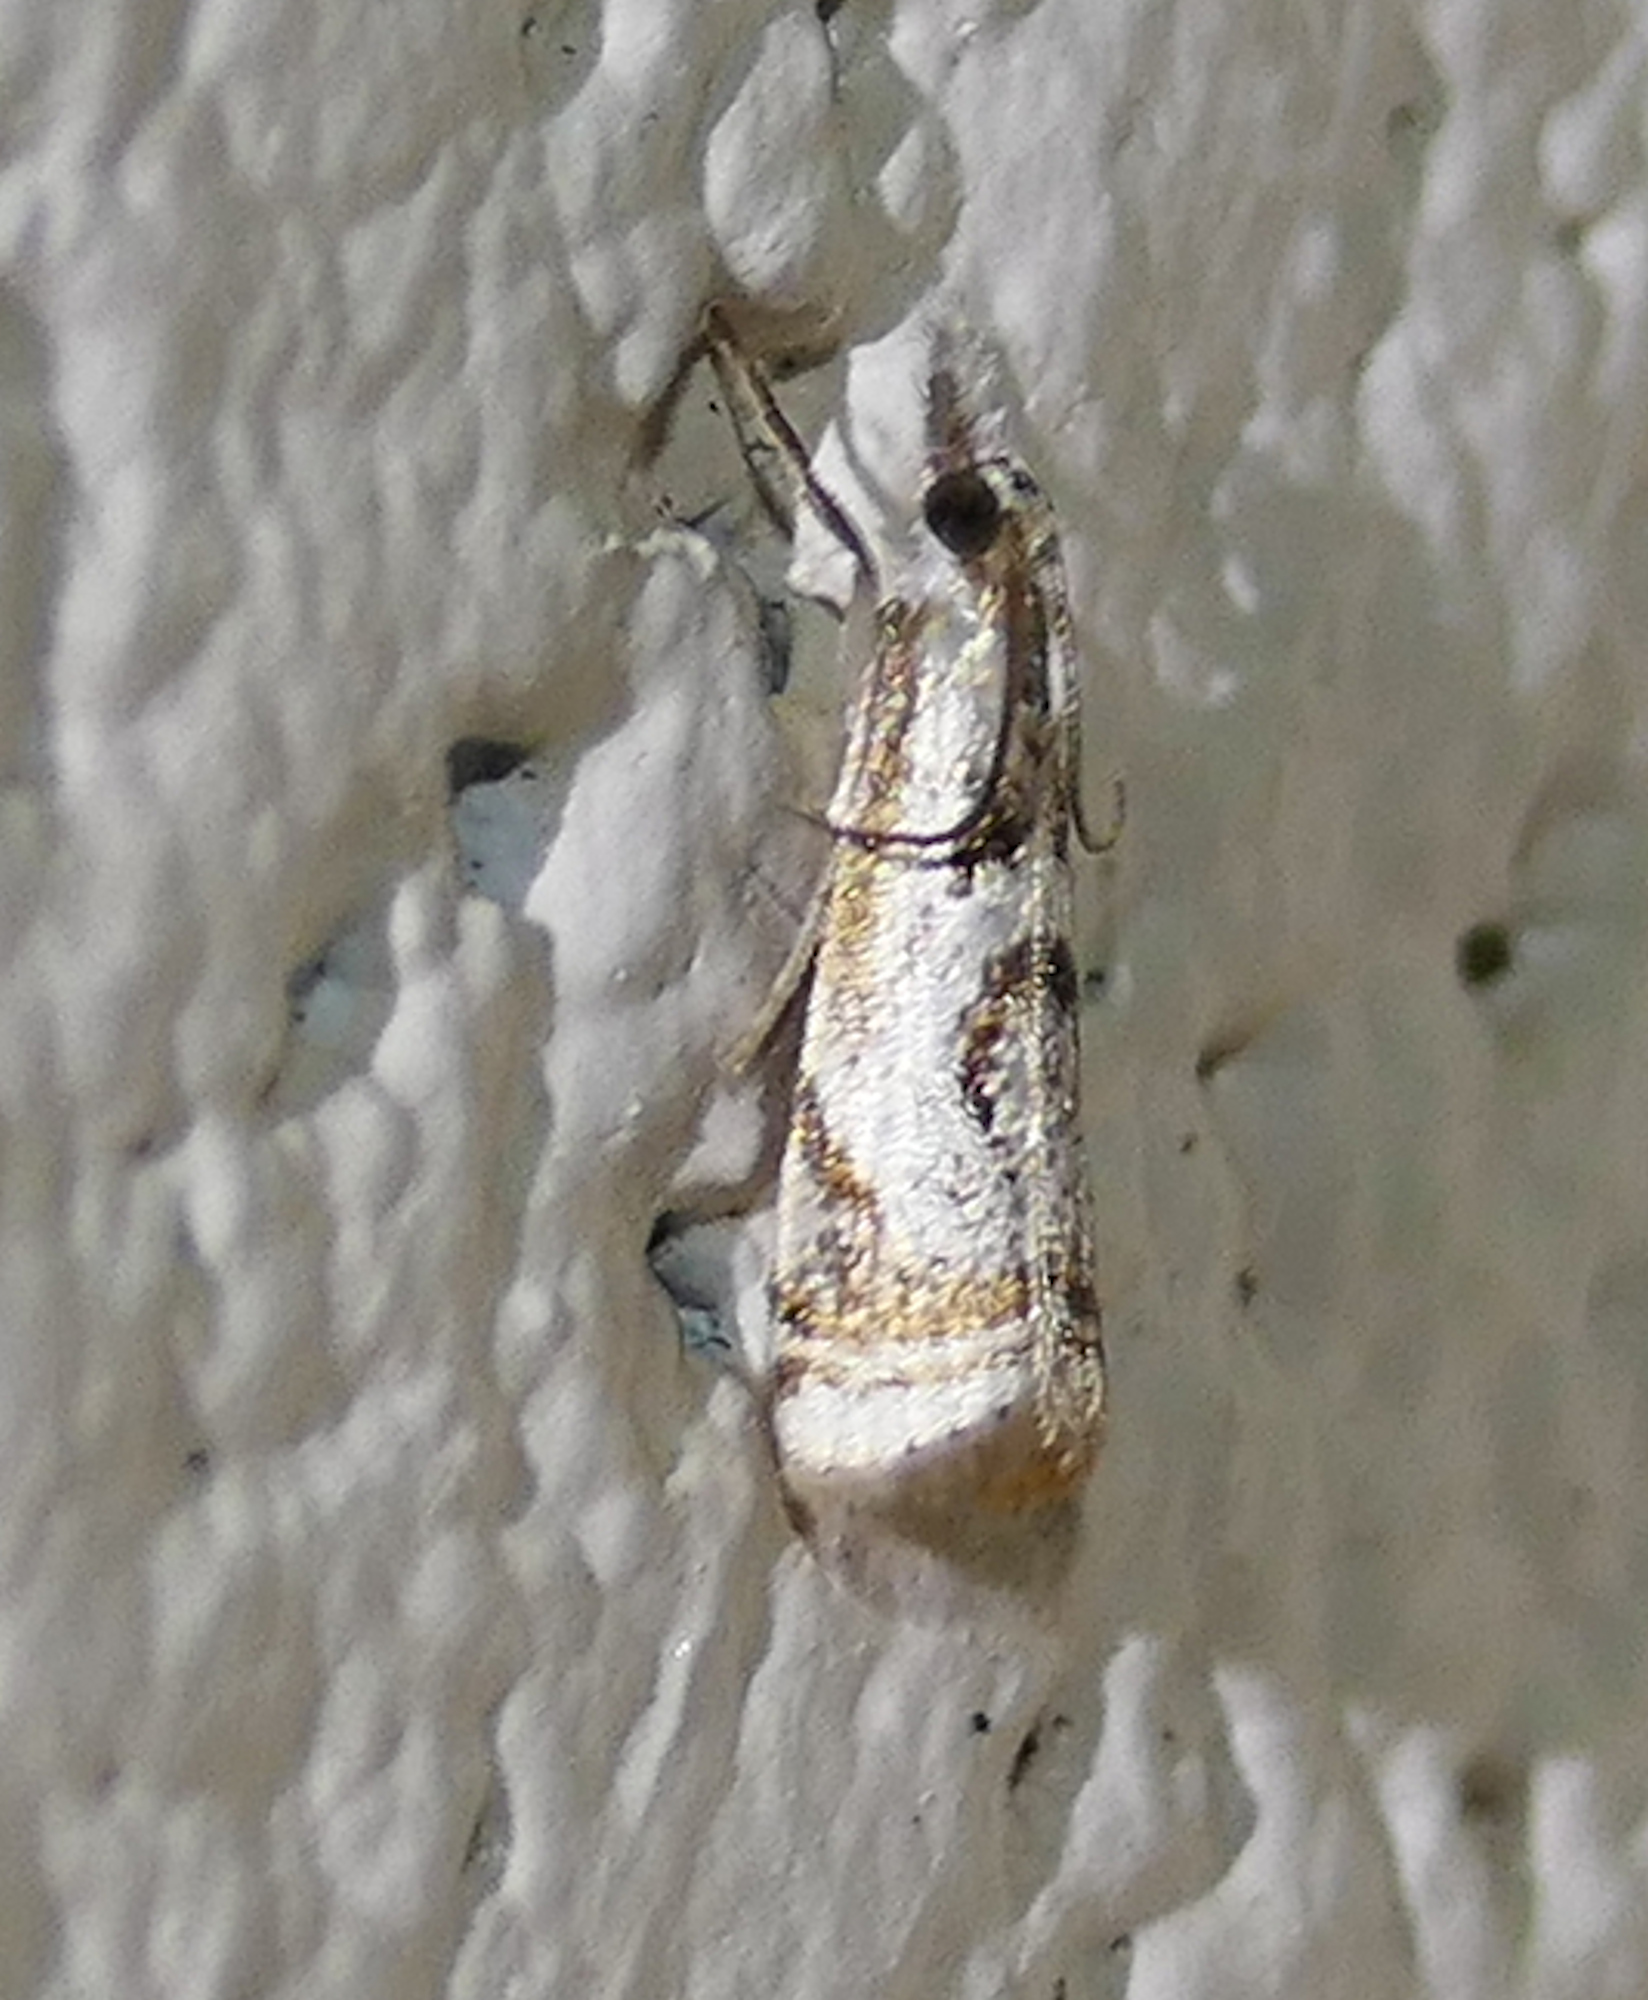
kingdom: Animalia
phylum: Arthropoda
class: Insecta
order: Lepidoptera
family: Crambidae
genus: Microcrambus
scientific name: Microcrambus elegans
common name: Elegant grass-veneer
